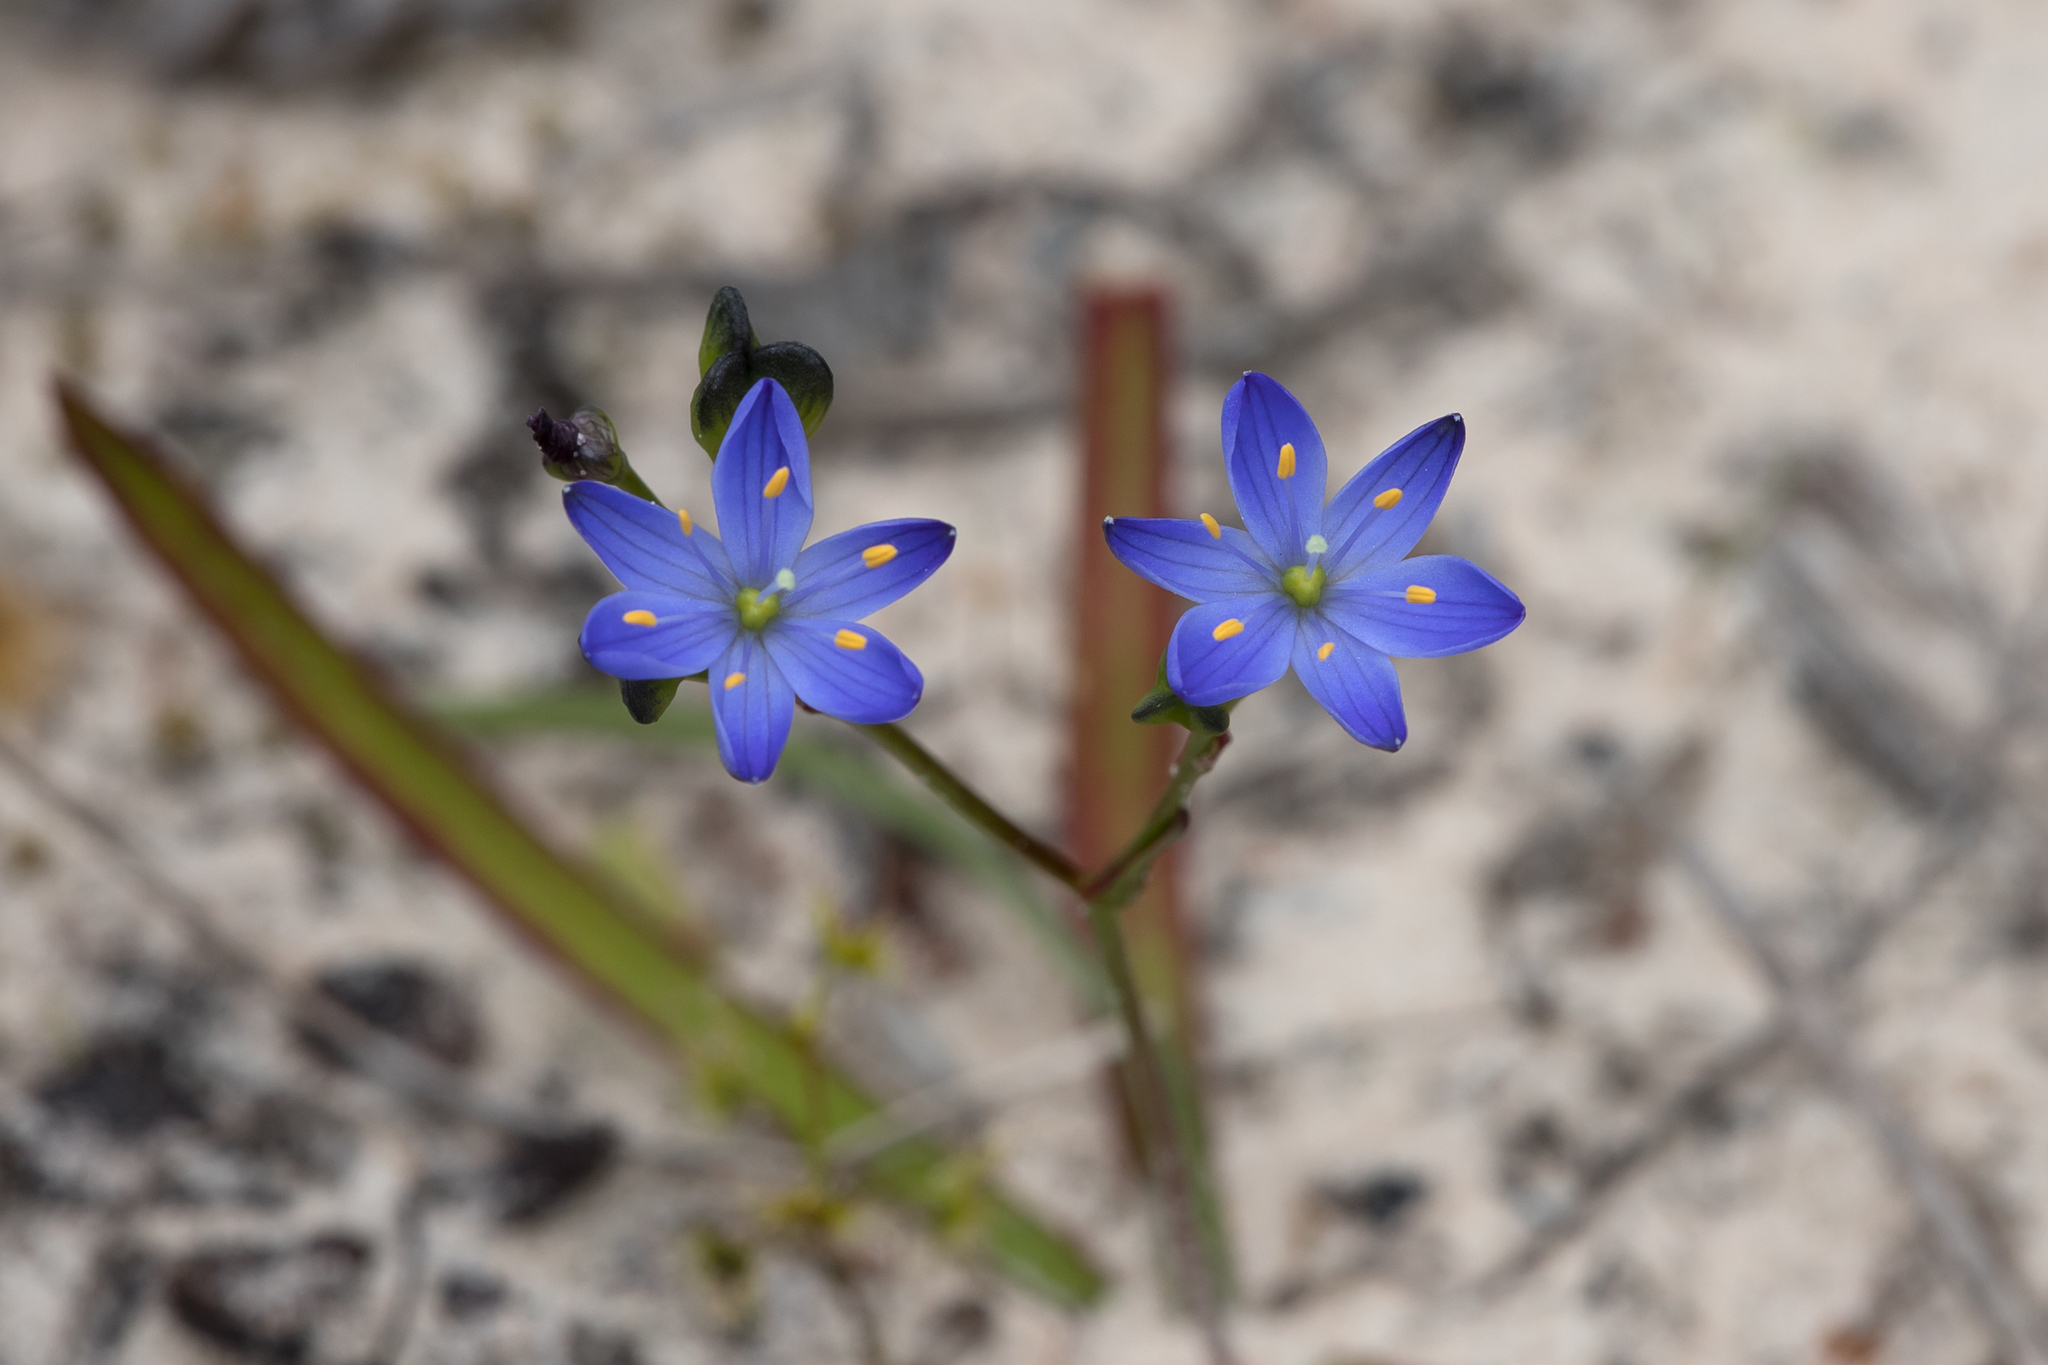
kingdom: Plantae
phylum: Tracheophyta
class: Liliopsida
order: Asparagales
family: Asphodelaceae
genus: Chamaescilla
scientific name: Chamaescilla corymbosa
